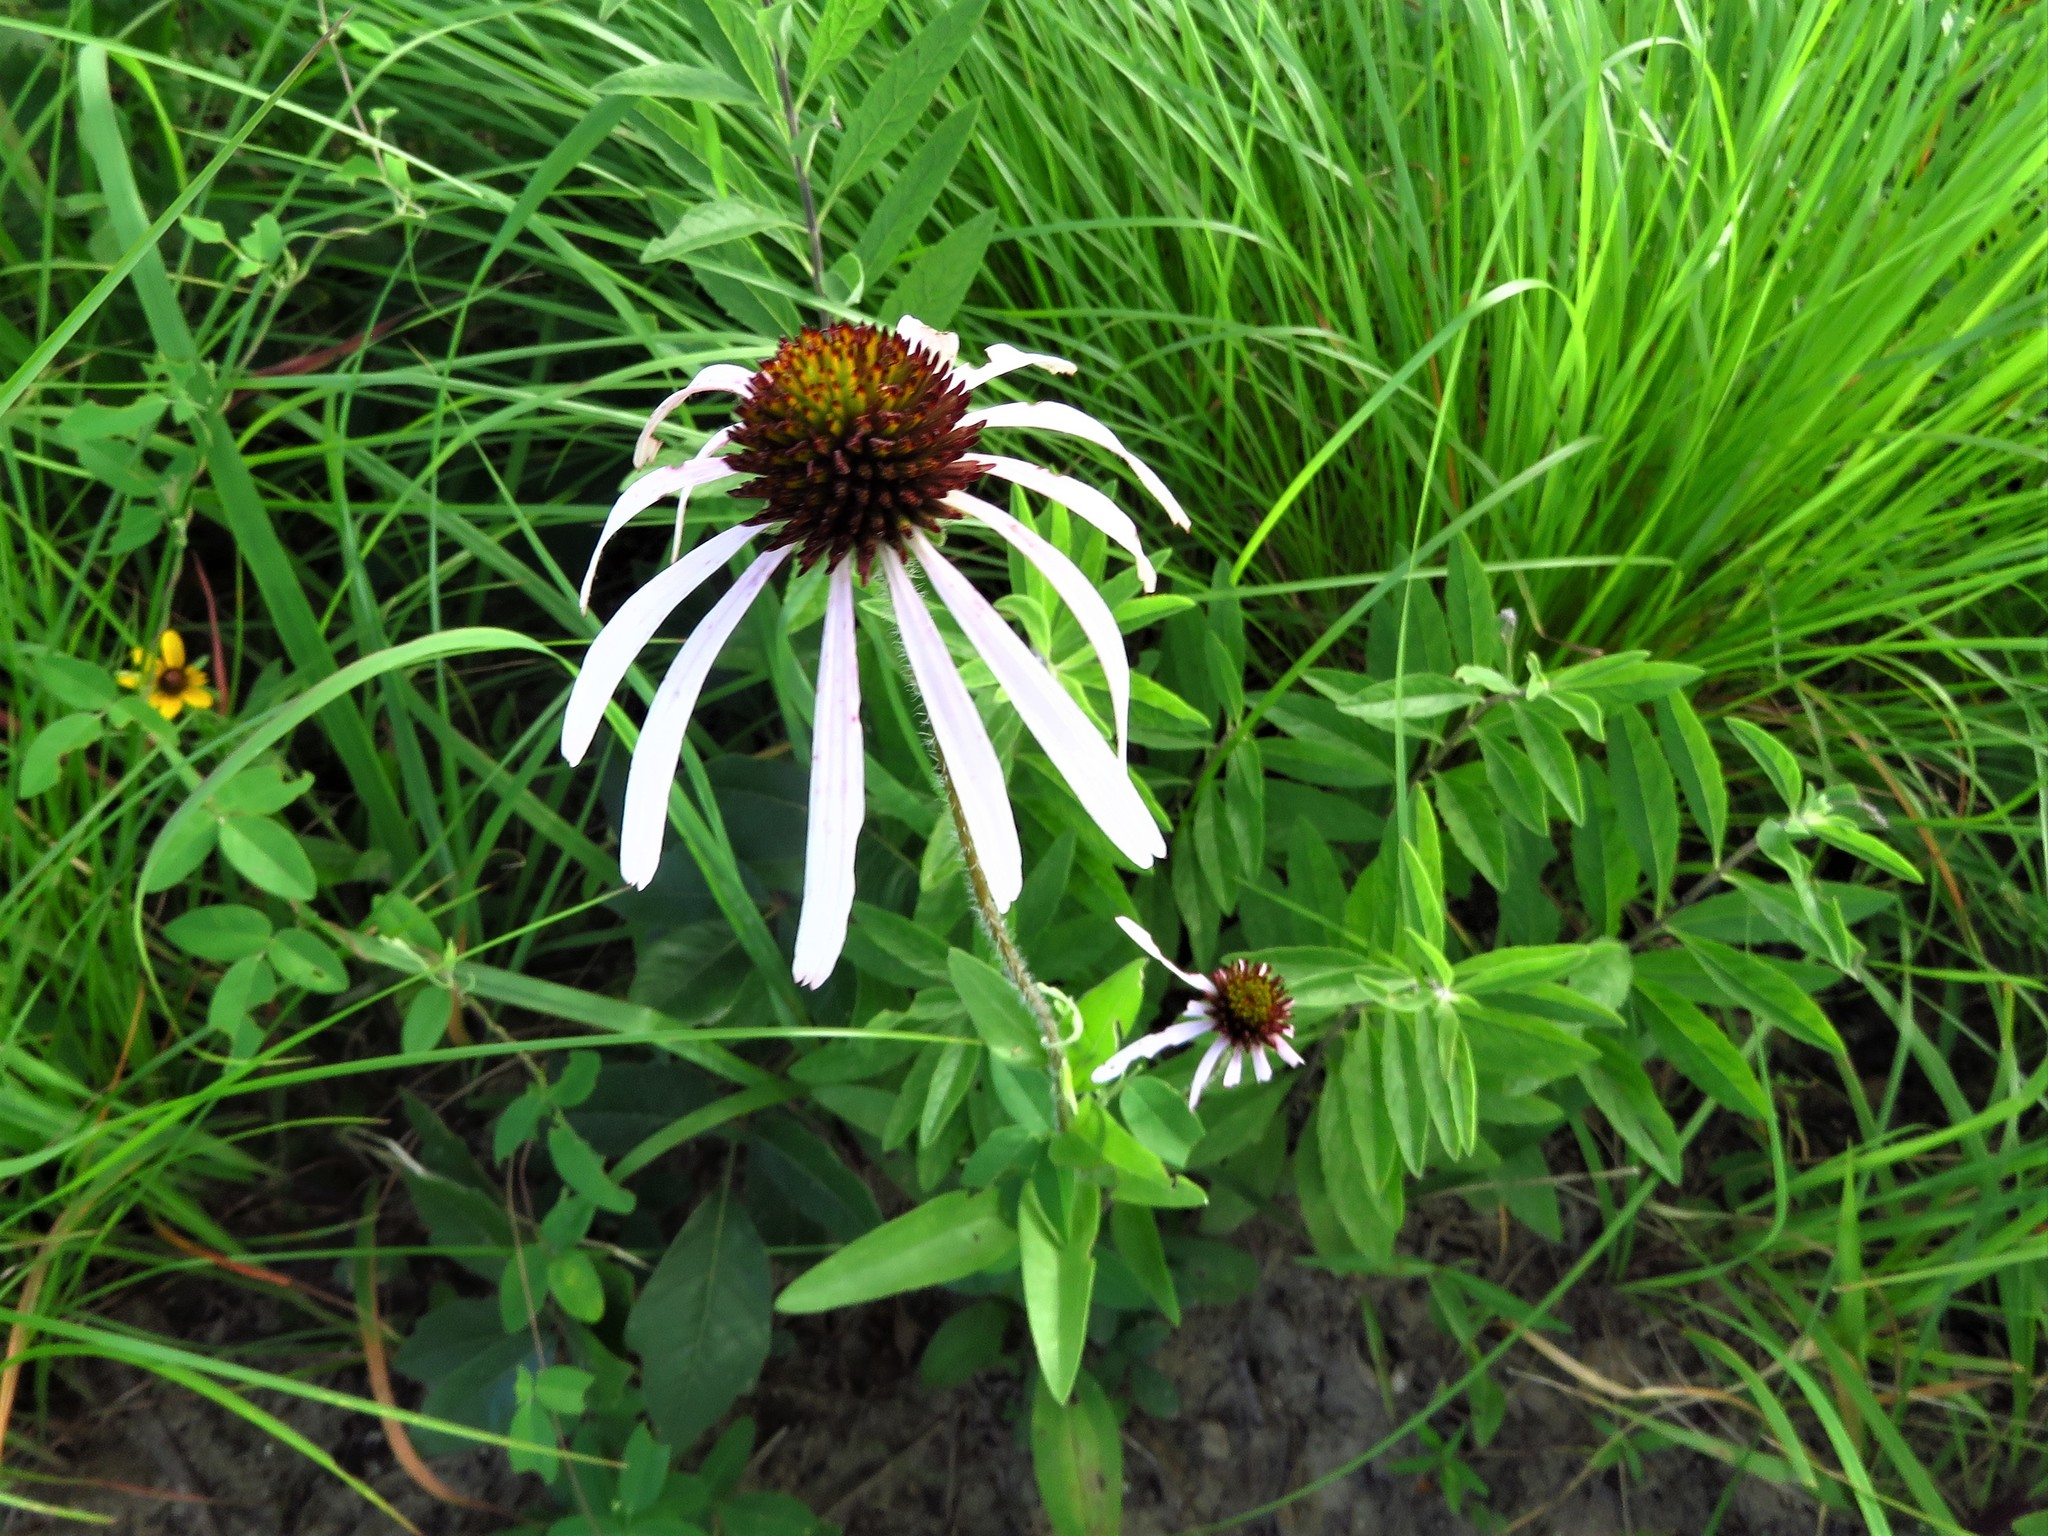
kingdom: Plantae
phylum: Tracheophyta
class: Magnoliopsida
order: Asterales
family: Asteraceae
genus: Echinacea
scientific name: Echinacea sanguinea
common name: Sanguine purple-coneflower
